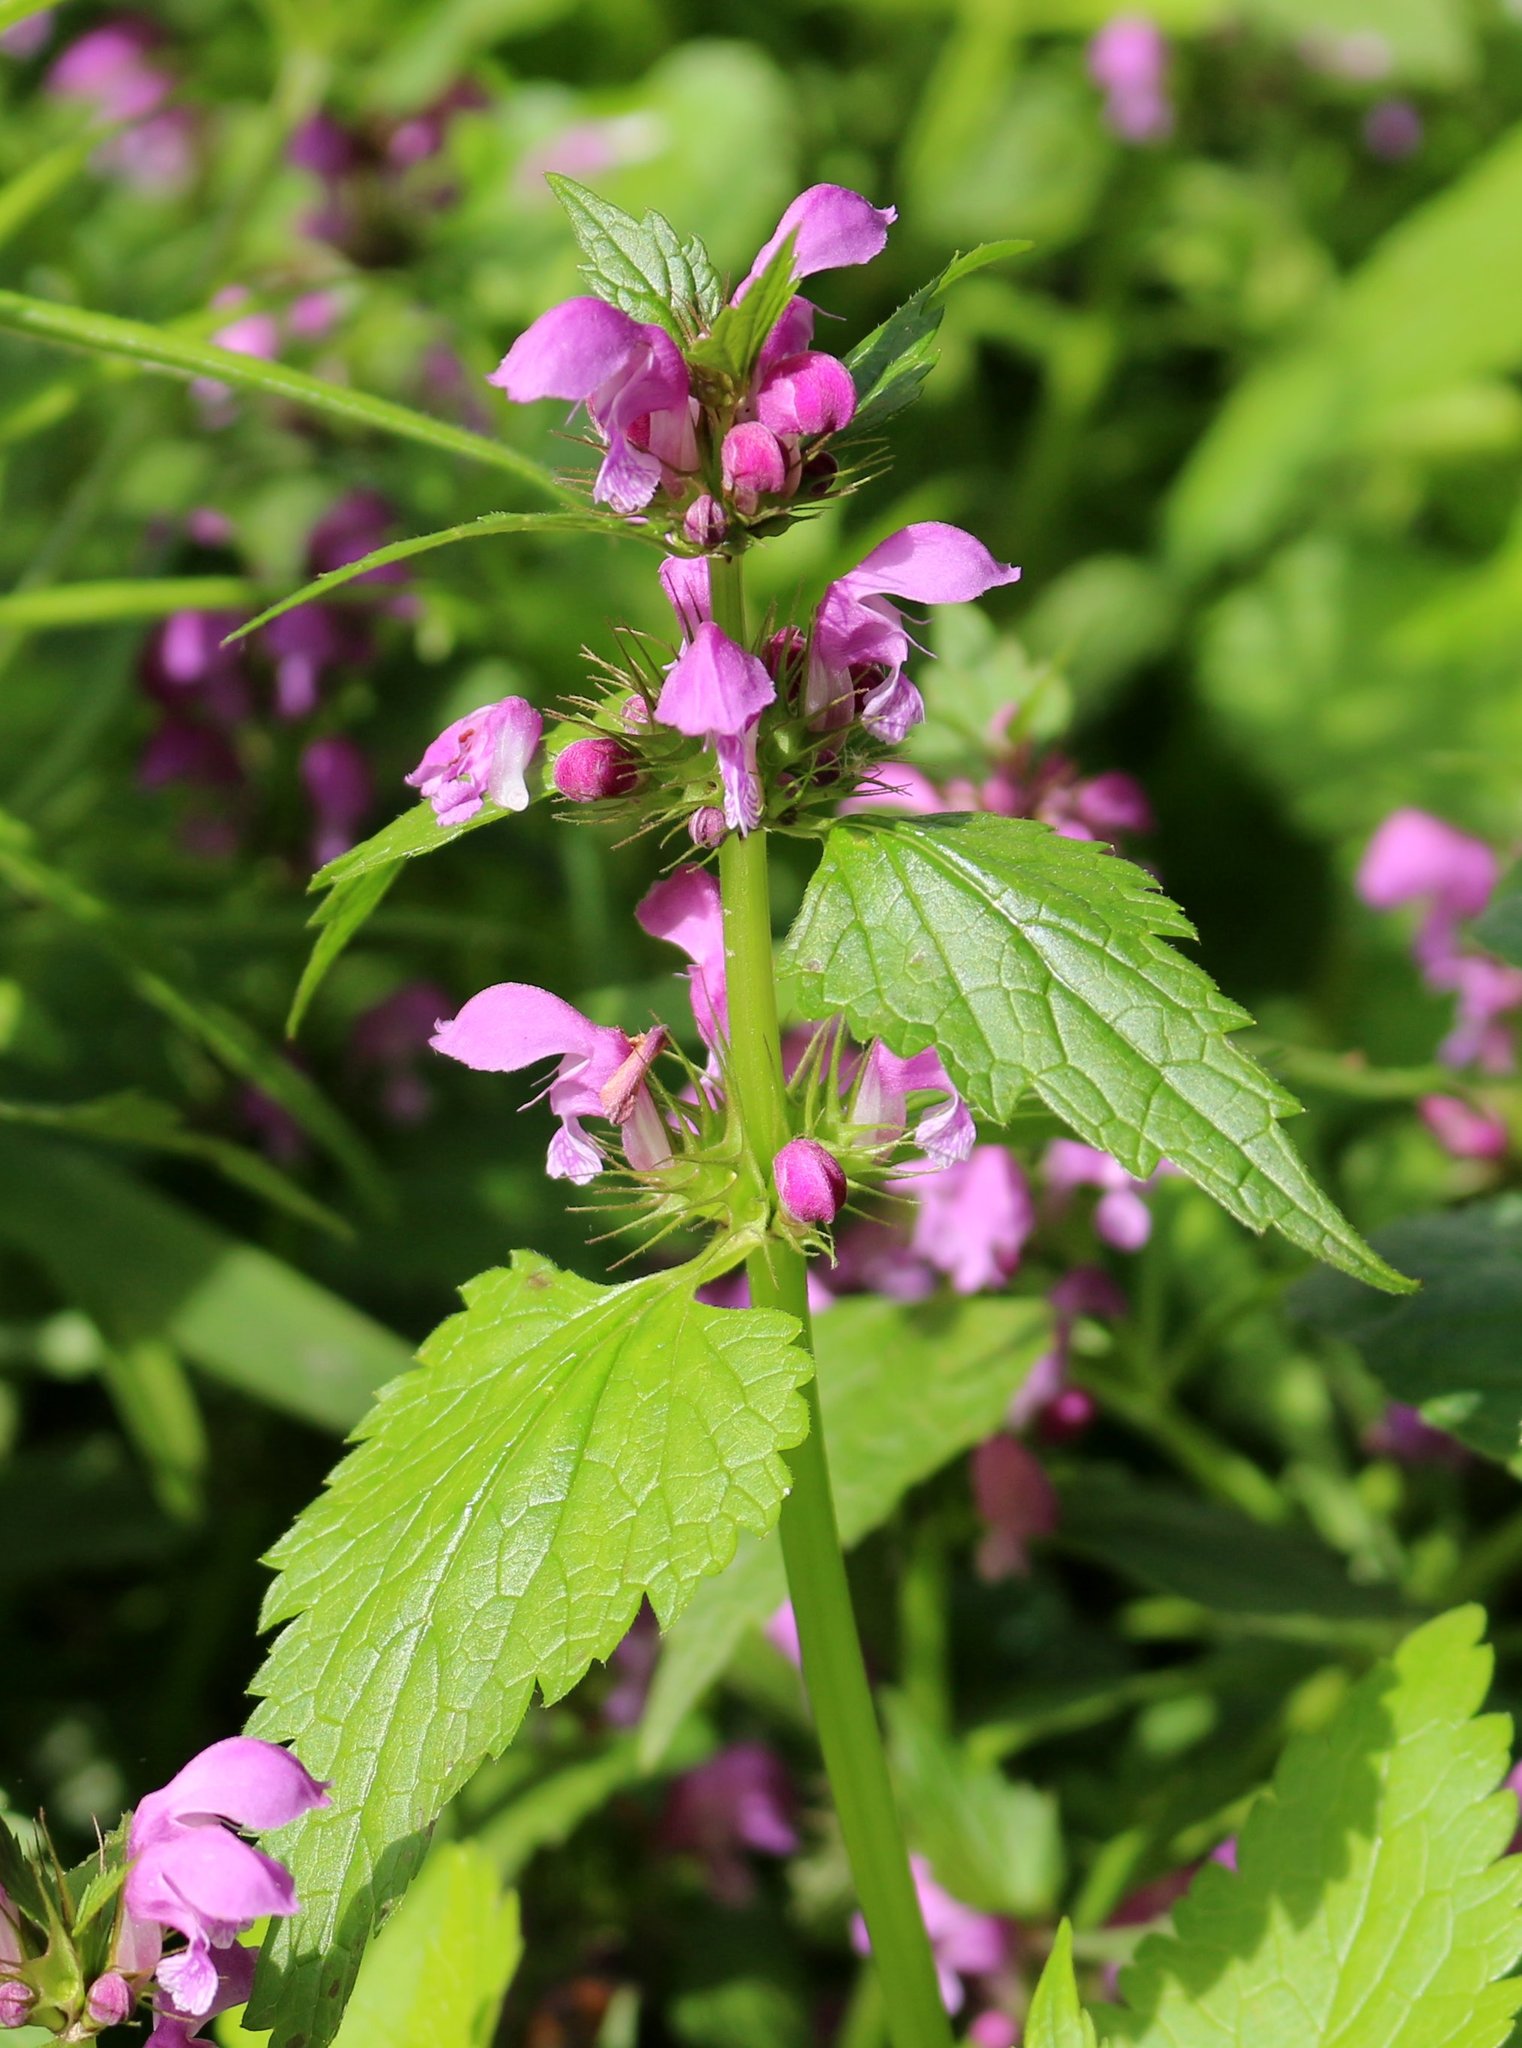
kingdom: Plantae
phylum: Tracheophyta
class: Magnoliopsida
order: Lamiales
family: Lamiaceae
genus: Lamium
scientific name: Lamium maculatum
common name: Spotted dead-nettle
